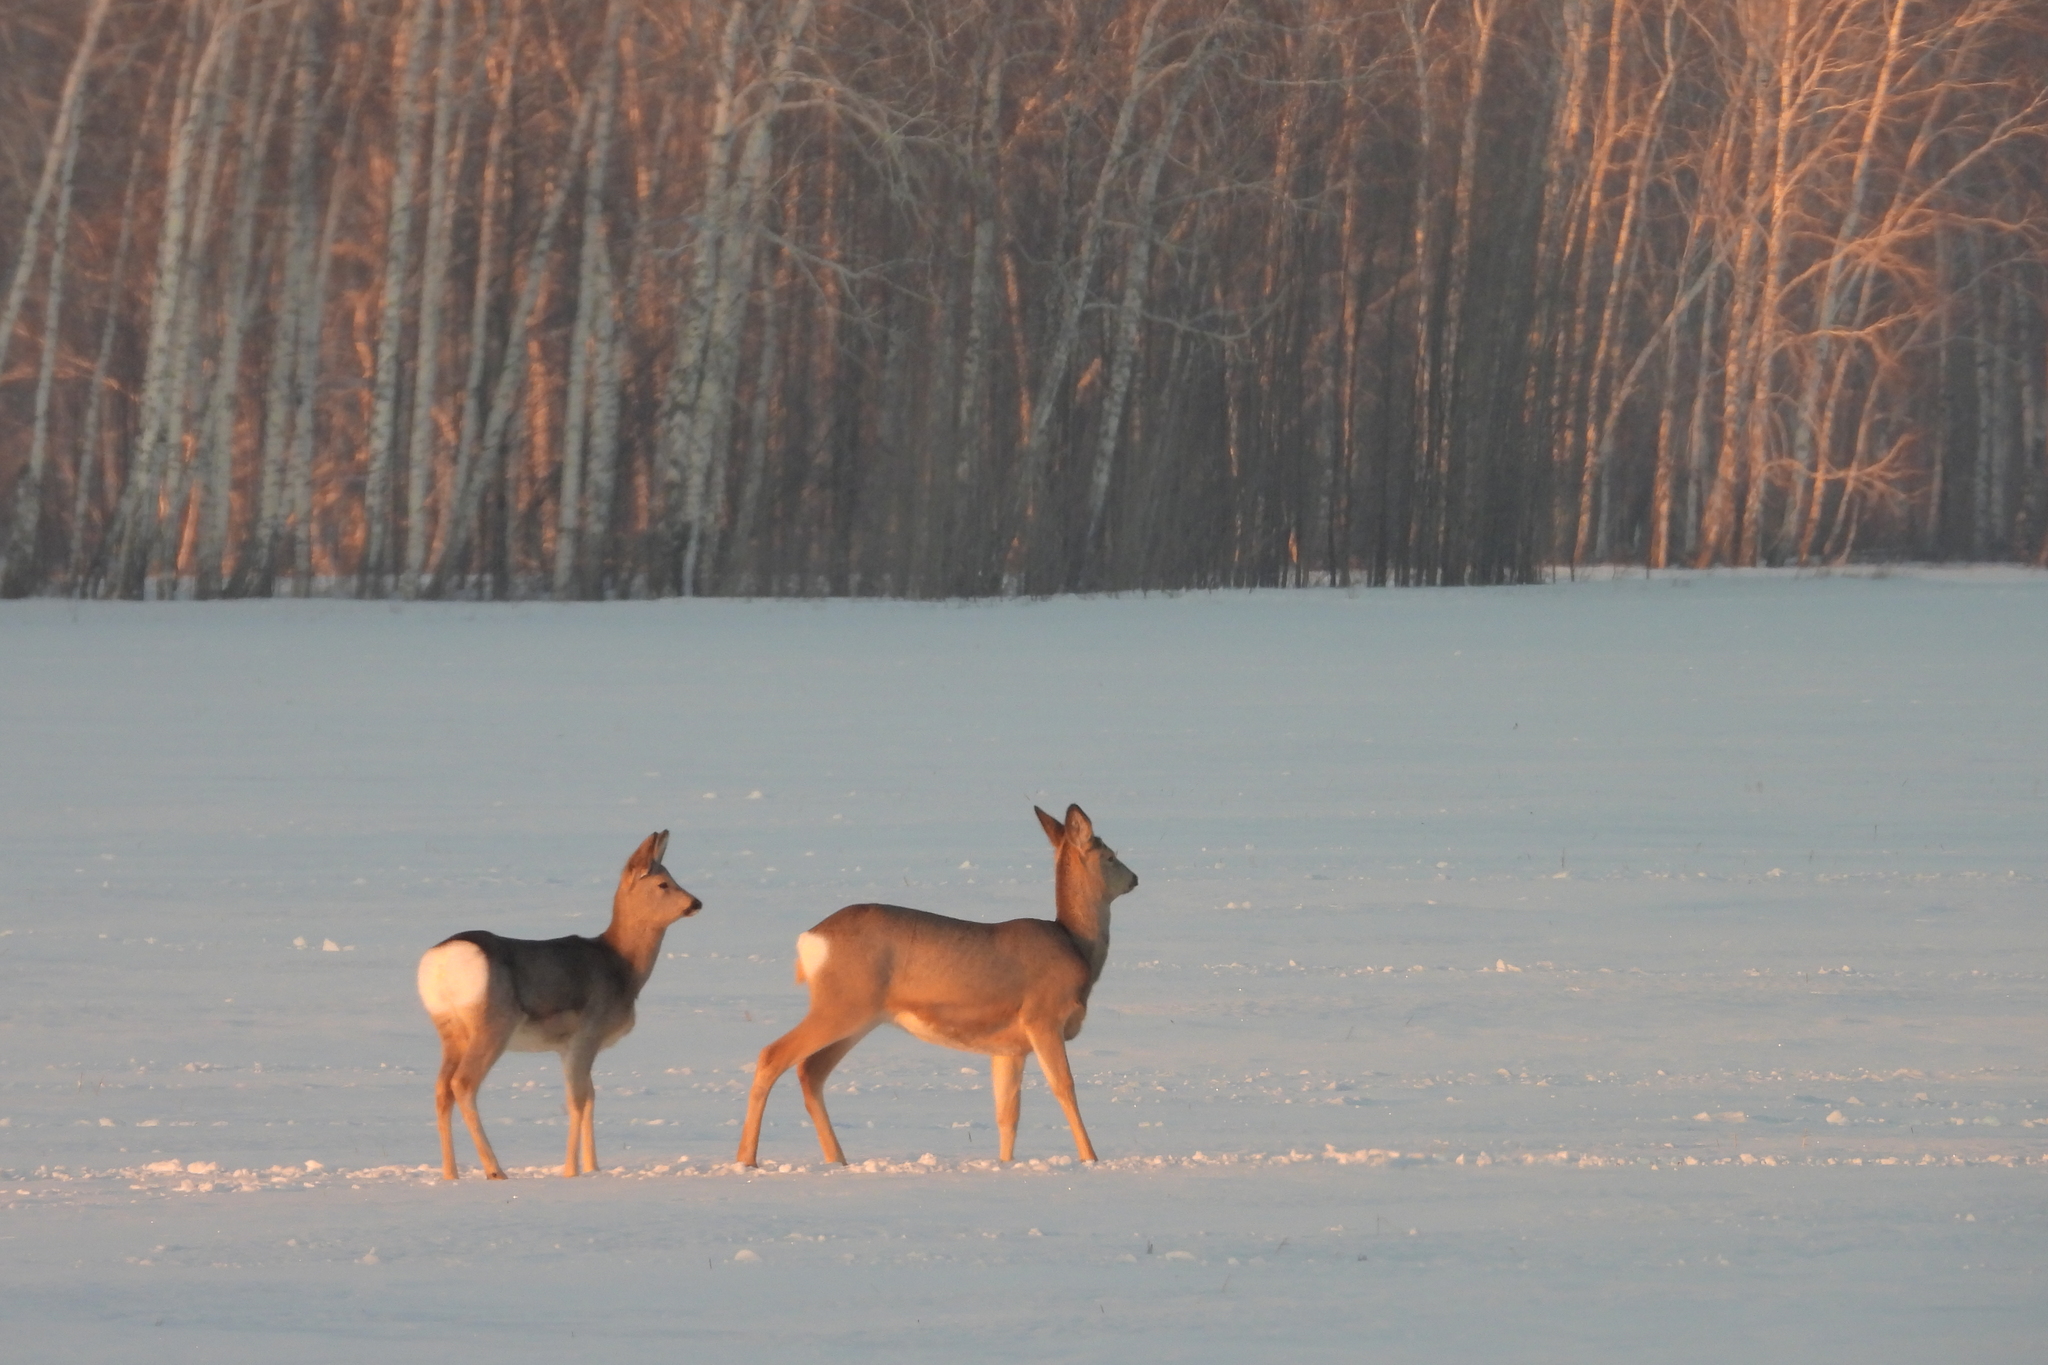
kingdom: Animalia
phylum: Chordata
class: Mammalia
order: Artiodactyla
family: Cervidae
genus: Capreolus
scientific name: Capreolus pygargus
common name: Siberian roe
